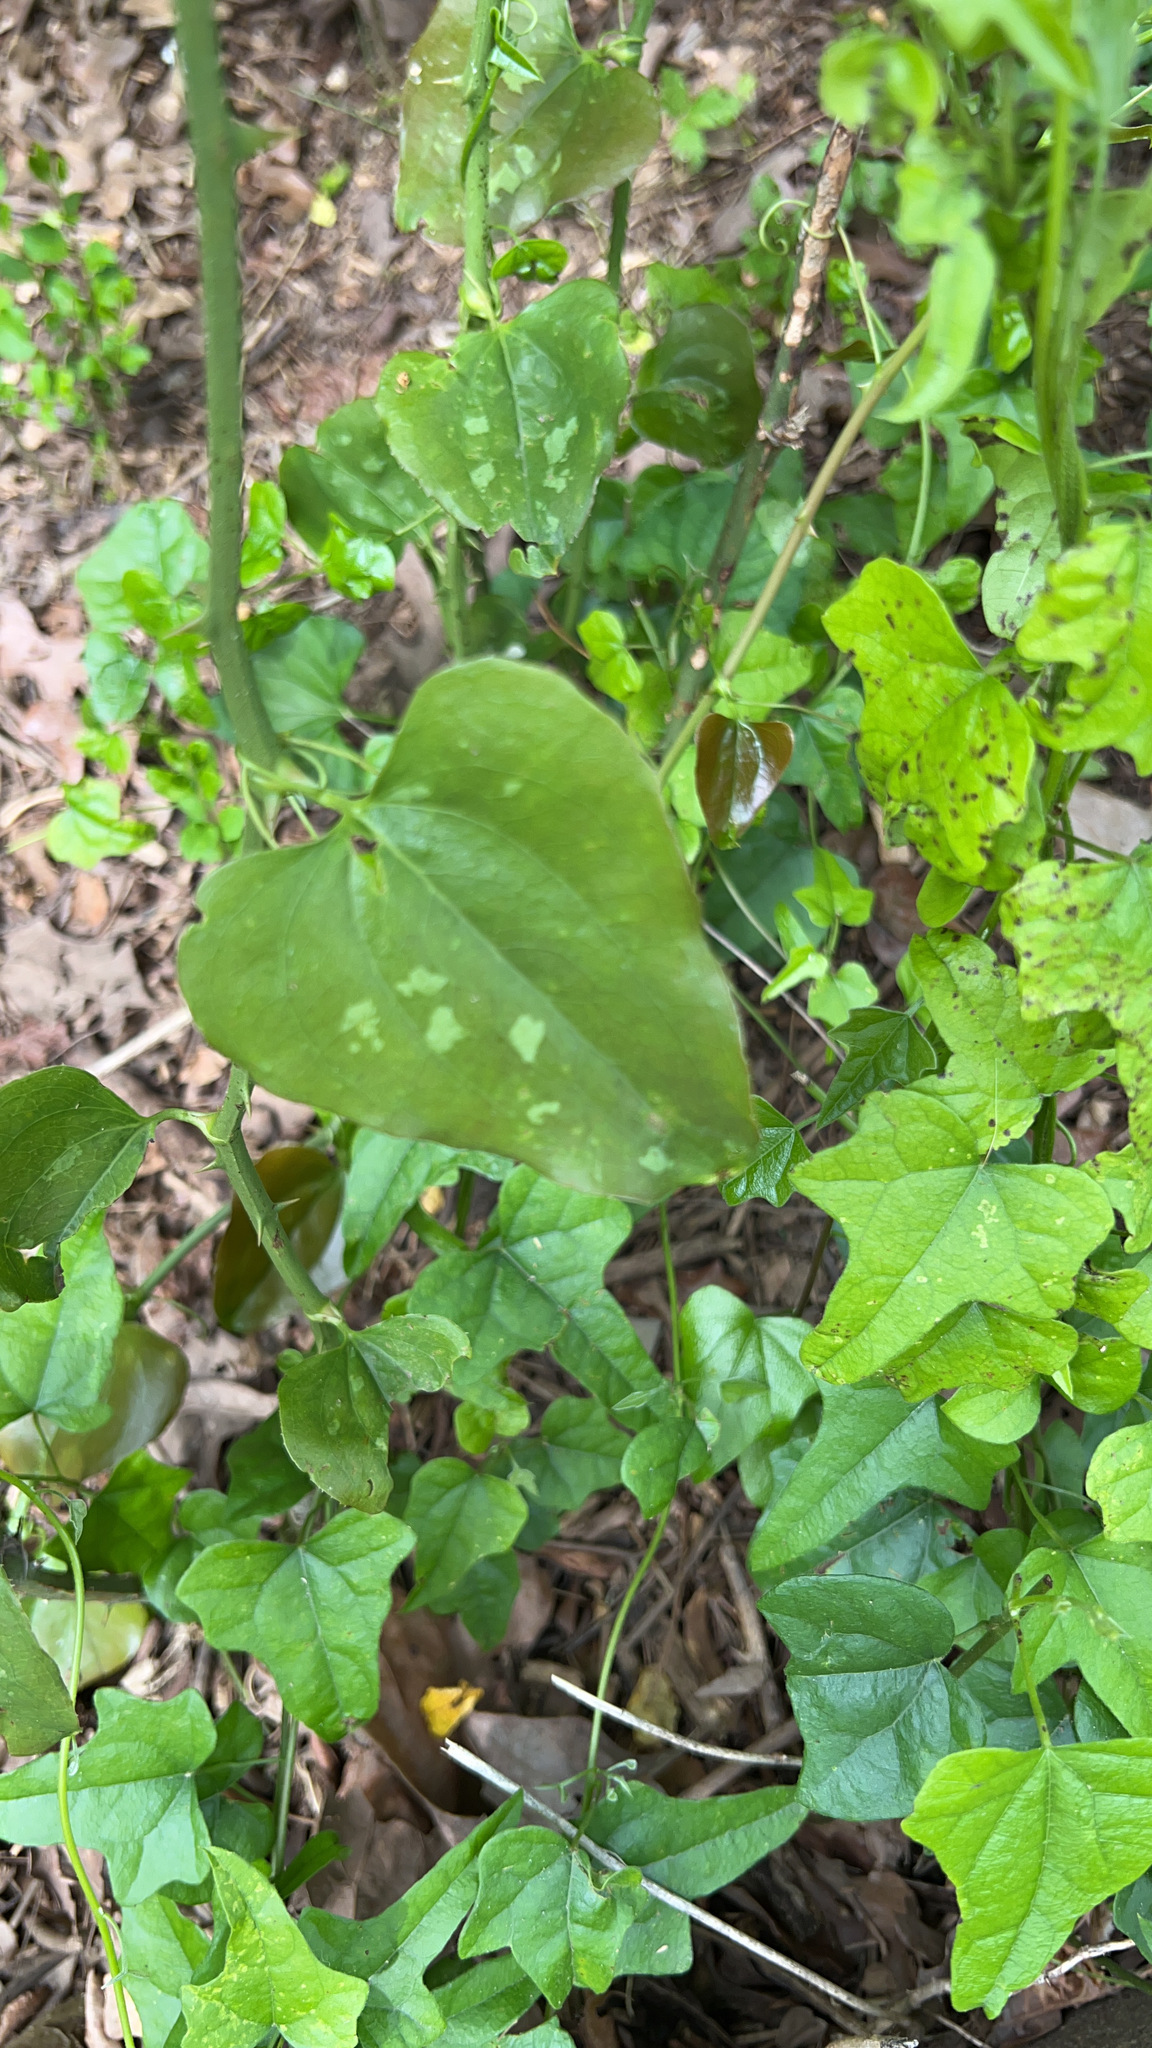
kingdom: Plantae
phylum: Tracheophyta
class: Liliopsida
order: Liliales
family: Smilacaceae
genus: Smilax
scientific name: Smilax bona-nox
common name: Catbrier
